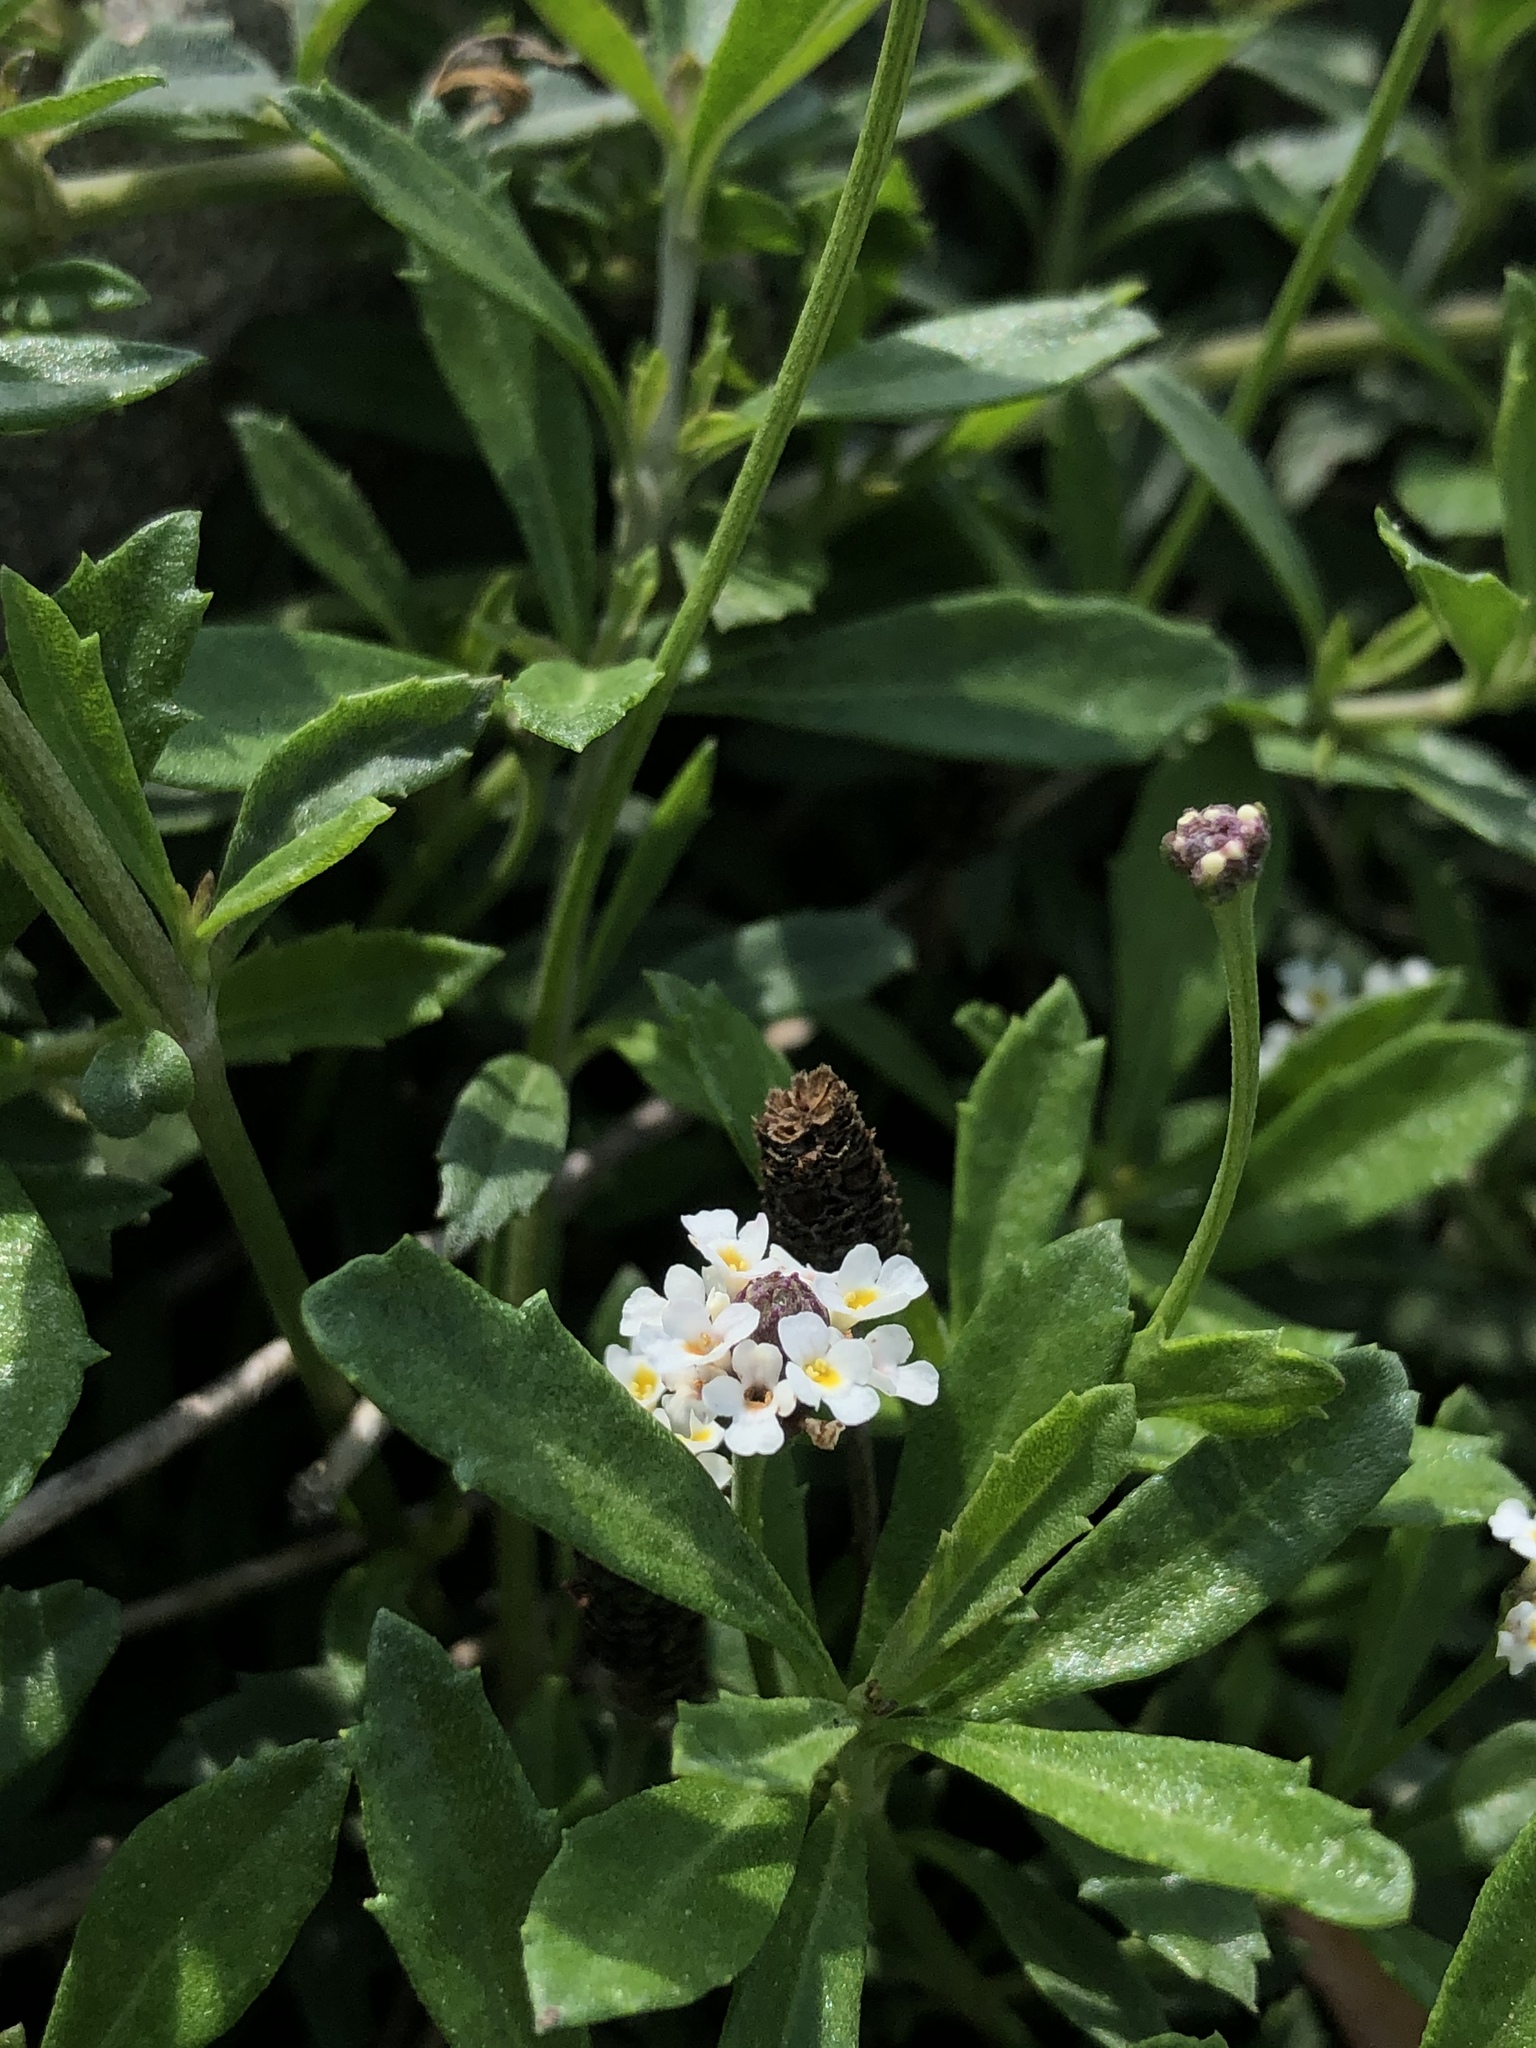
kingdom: Plantae
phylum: Tracheophyta
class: Magnoliopsida
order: Lamiales
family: Verbenaceae
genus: Phyla
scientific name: Phyla nodiflora
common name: Frogfruit
